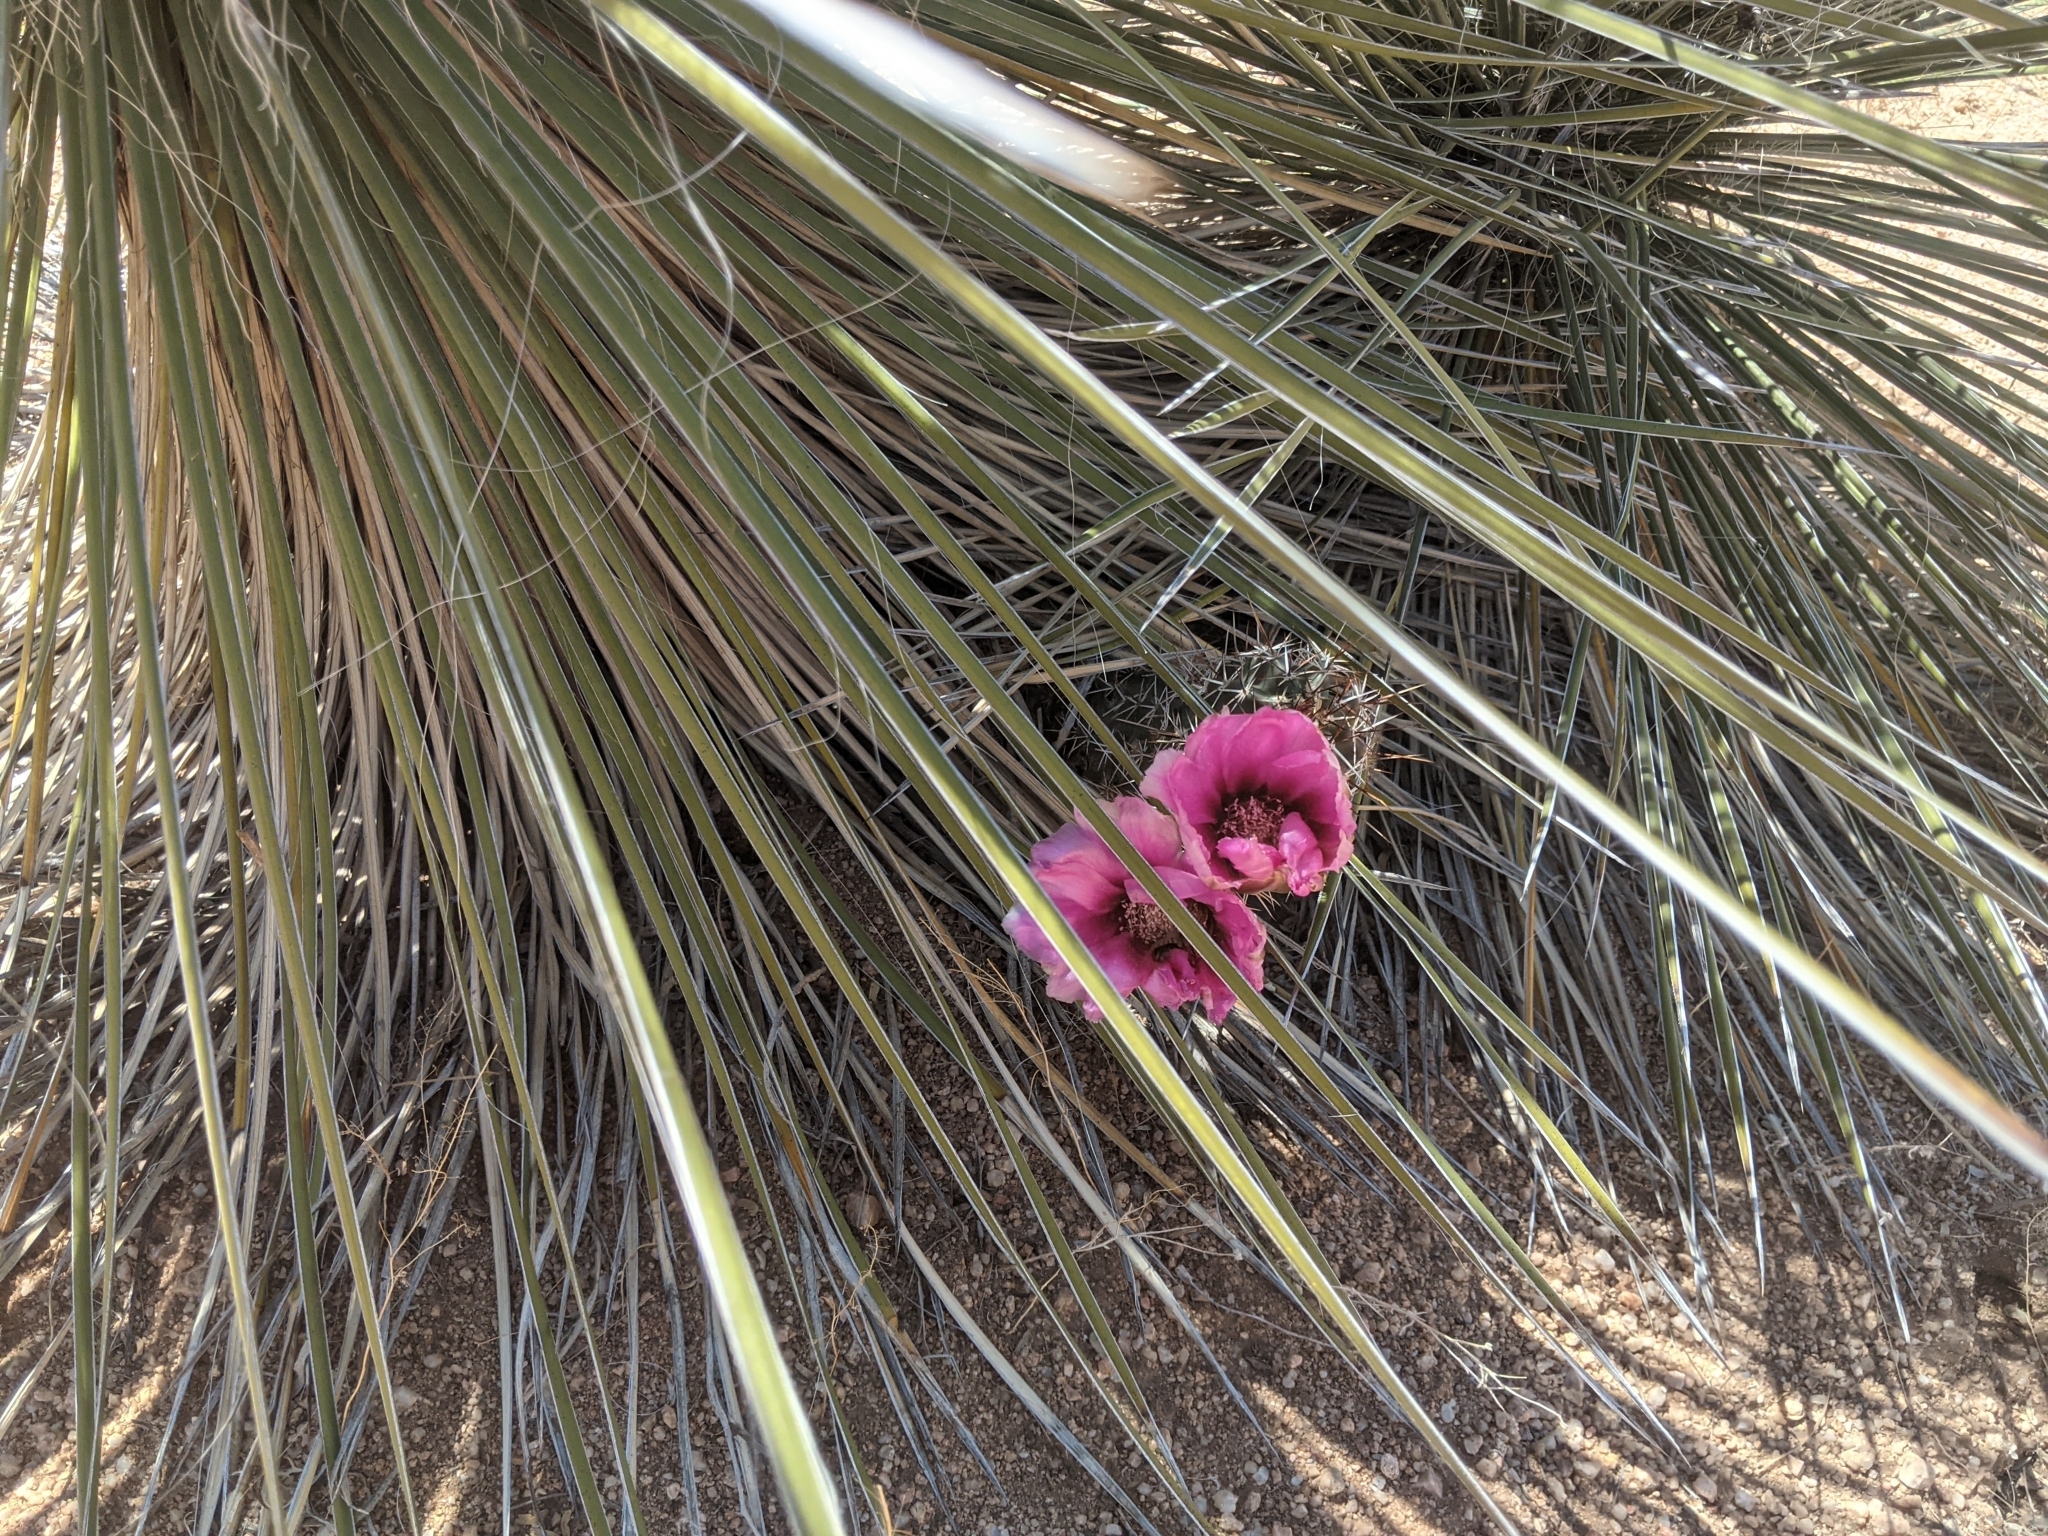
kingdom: Plantae
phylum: Tracheophyta
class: Magnoliopsida
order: Caryophyllales
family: Cactaceae
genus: Echinocereus
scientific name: Echinocereus fasciculatus
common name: Bundle hedgehog
